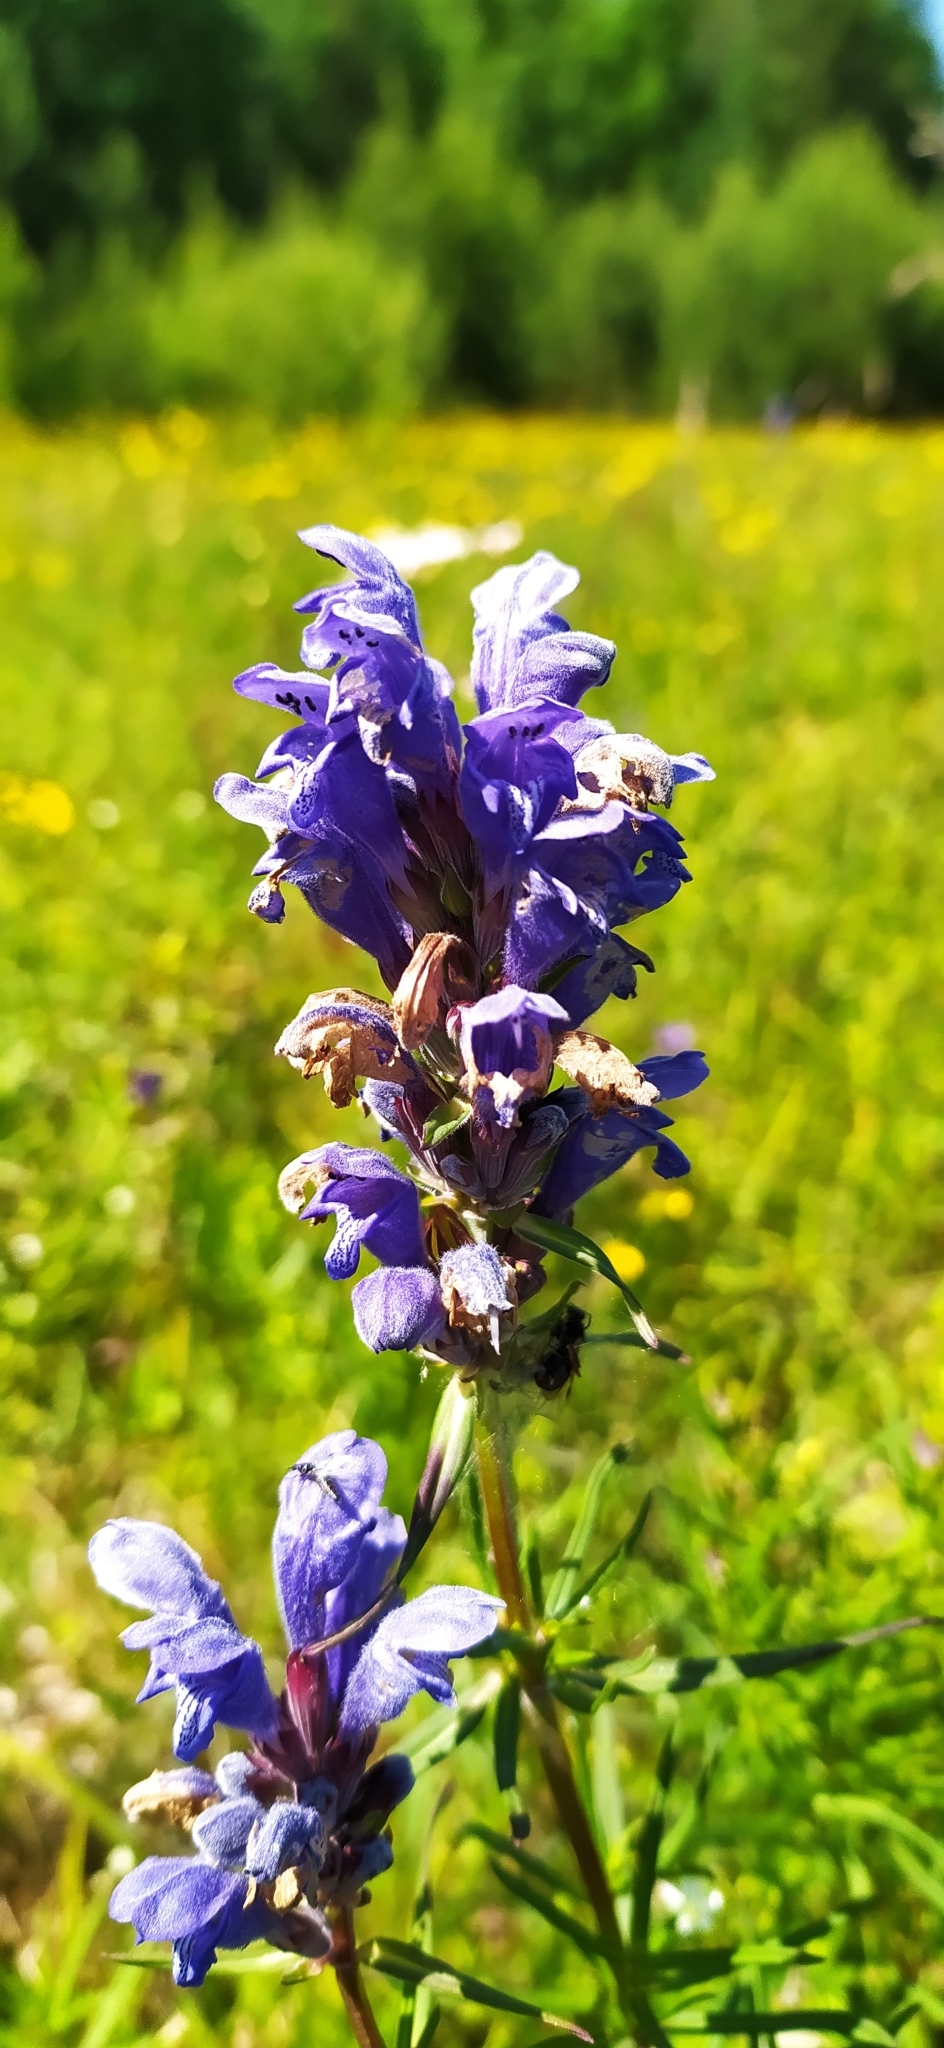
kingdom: Plantae
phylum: Tracheophyta
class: Magnoliopsida
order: Lamiales
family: Lamiaceae
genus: Dracocephalum
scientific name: Dracocephalum ruyschiana
